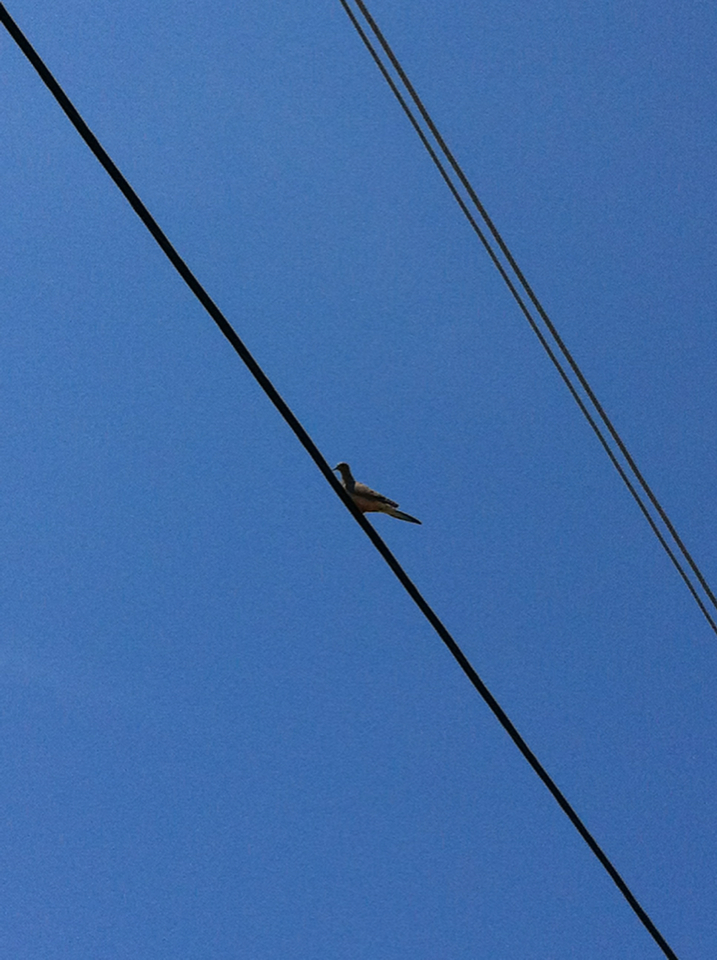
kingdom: Animalia
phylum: Chordata
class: Aves
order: Columbiformes
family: Columbidae
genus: Zenaida
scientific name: Zenaida macroura
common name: Mourning dove
